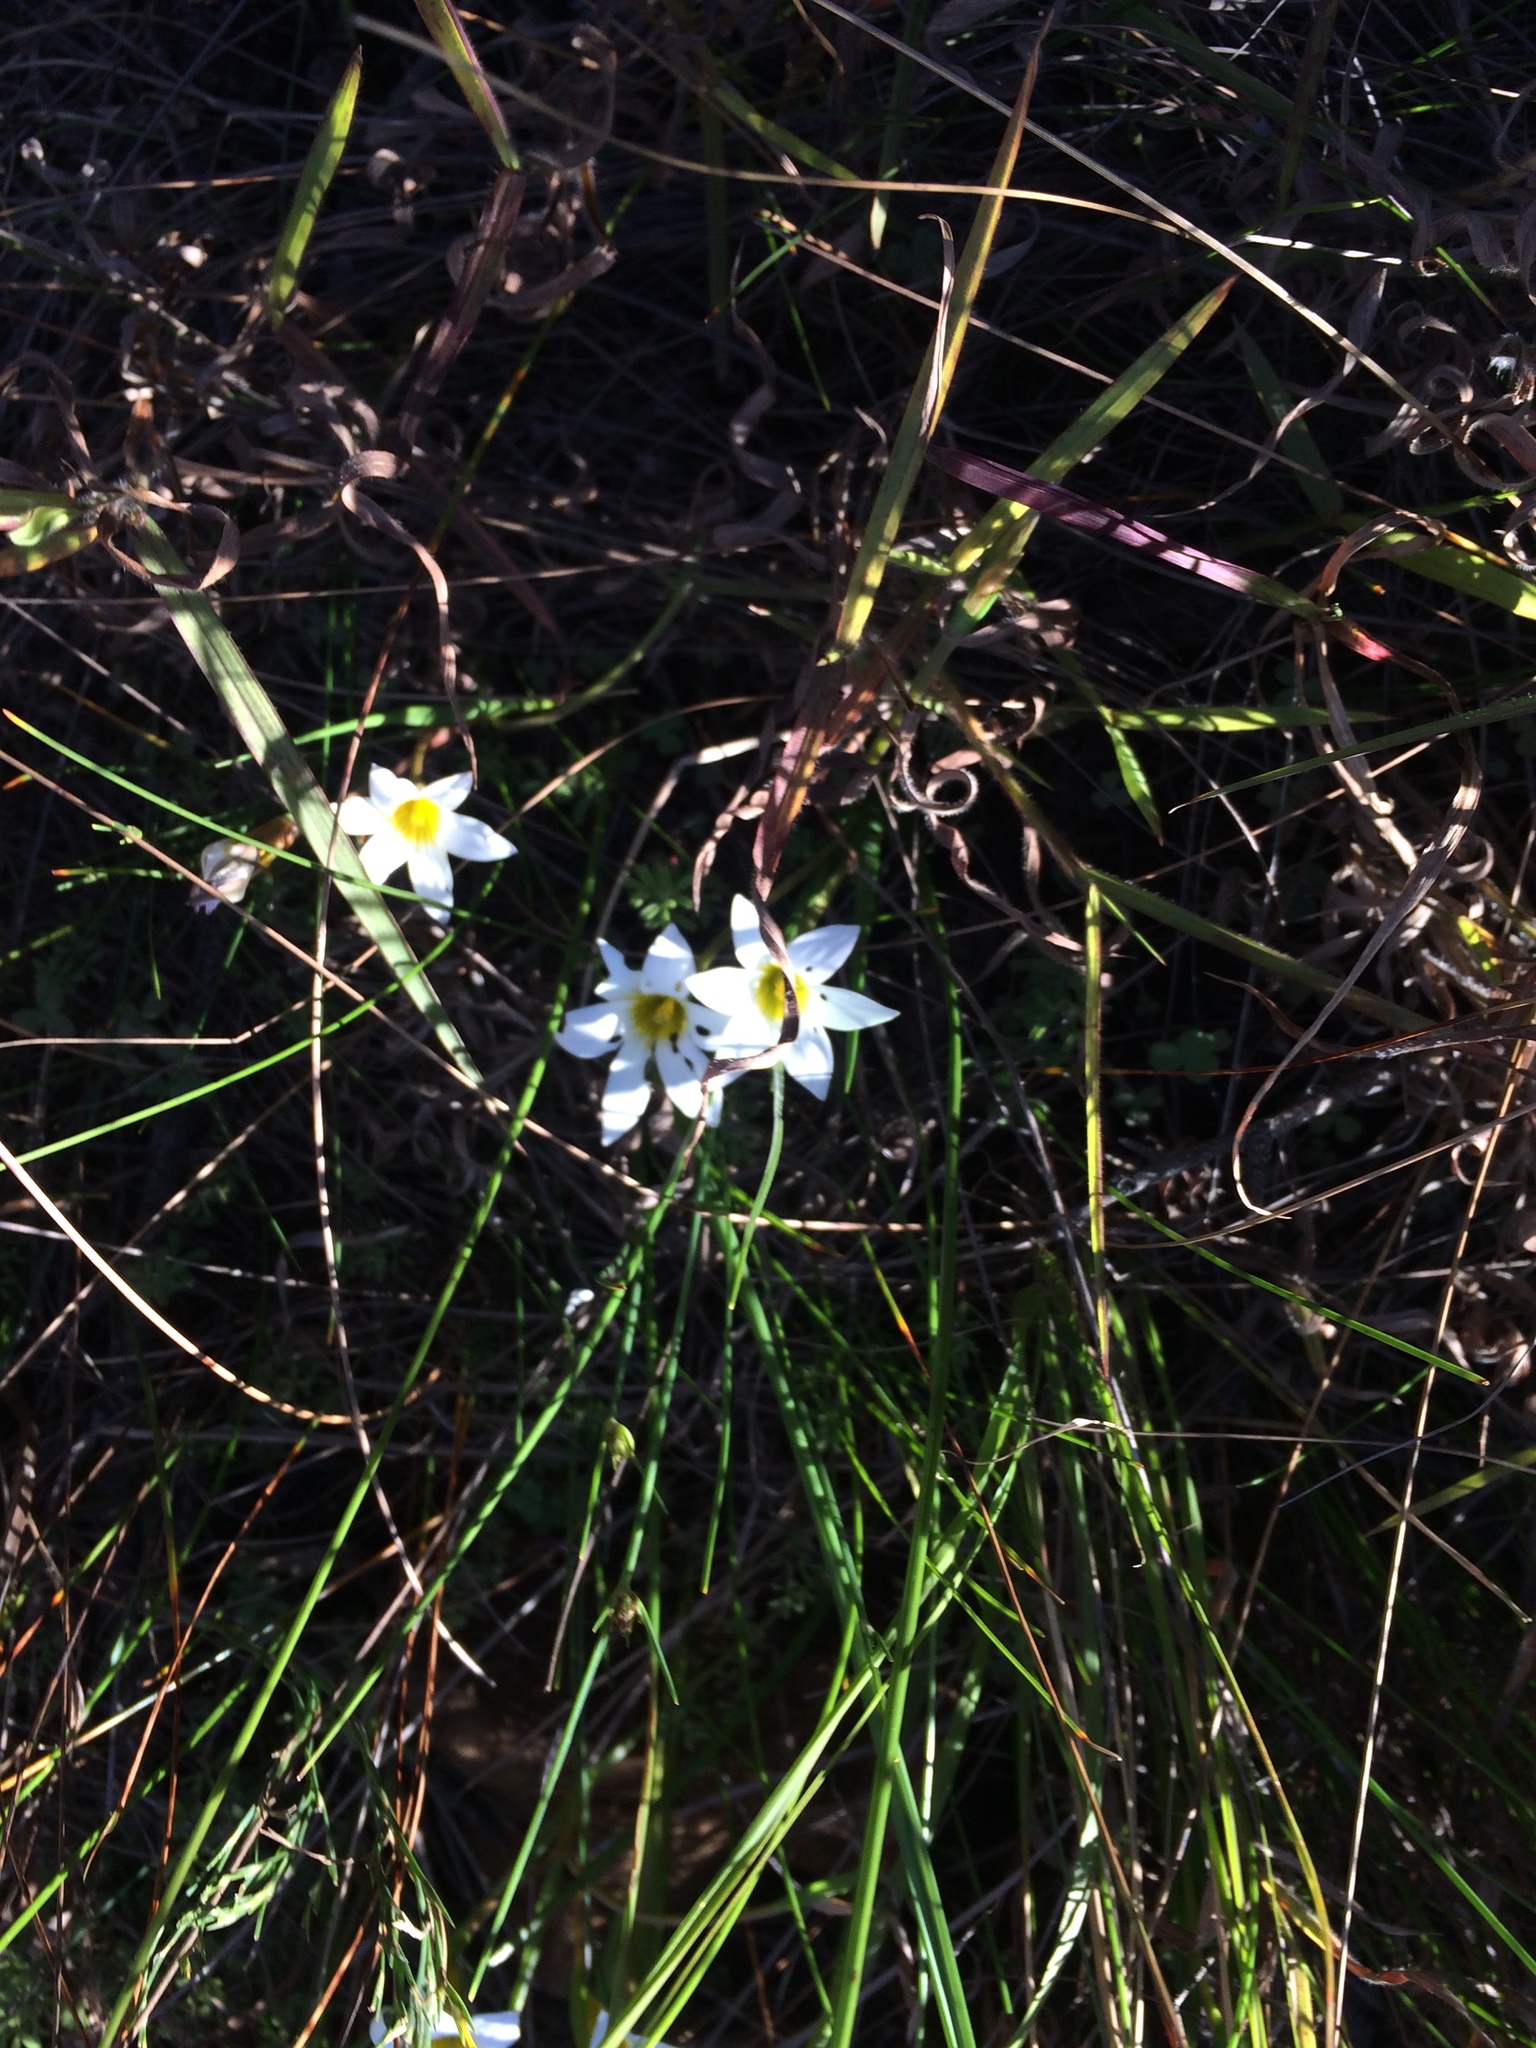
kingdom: Plantae
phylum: Tracheophyta
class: Liliopsida
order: Asparagales
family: Iridaceae
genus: Romulea
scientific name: Romulea flava
